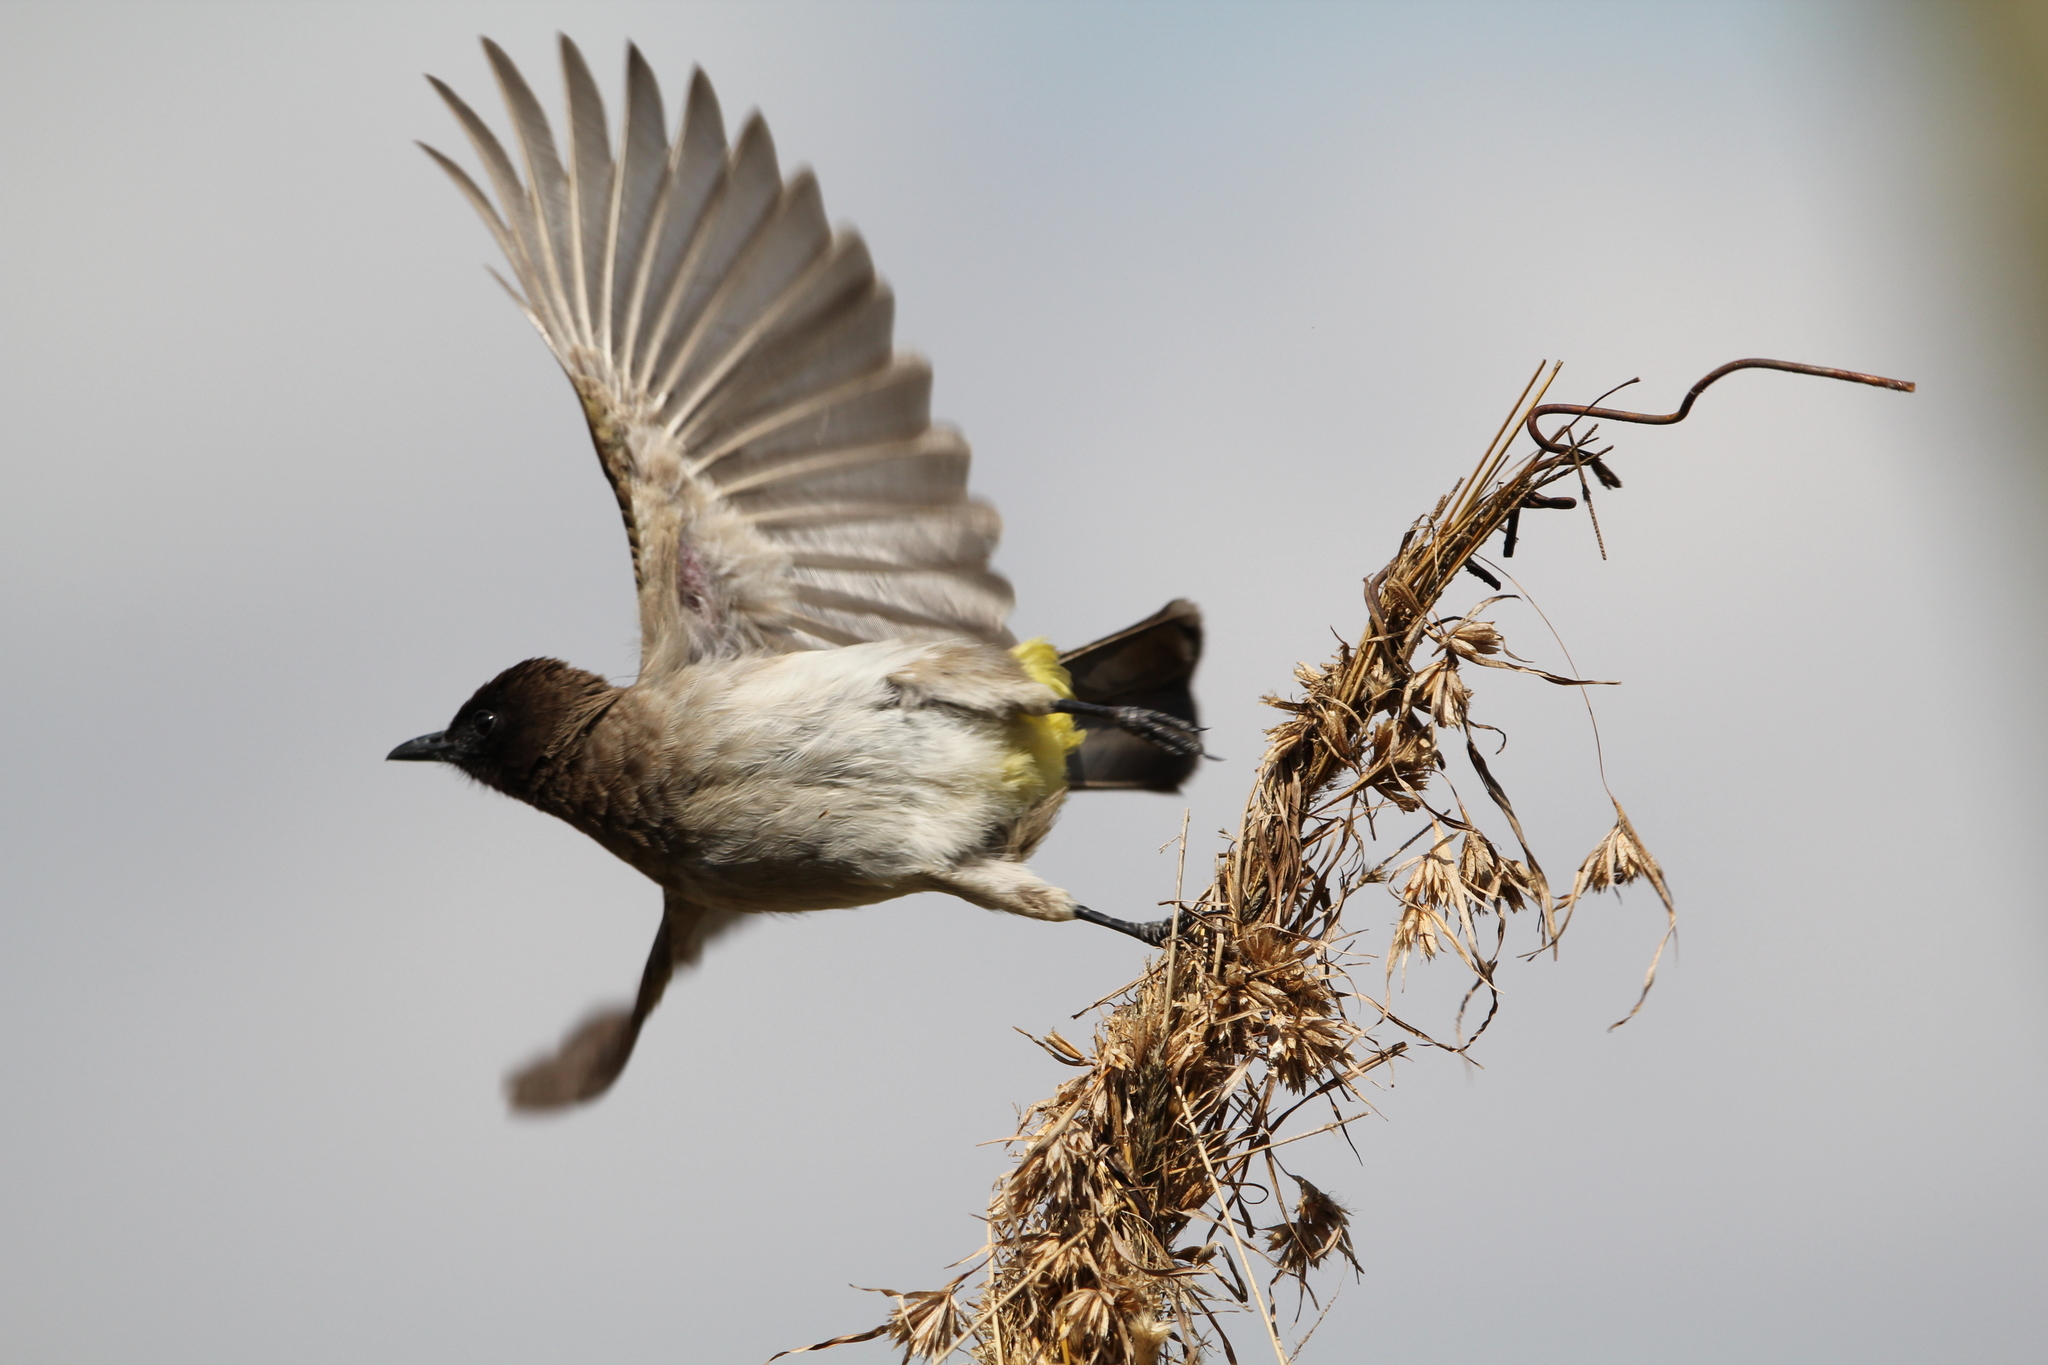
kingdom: Animalia
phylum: Chordata
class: Aves
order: Passeriformes
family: Pycnonotidae
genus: Pycnonotus
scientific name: Pycnonotus barbatus
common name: Common bulbul
